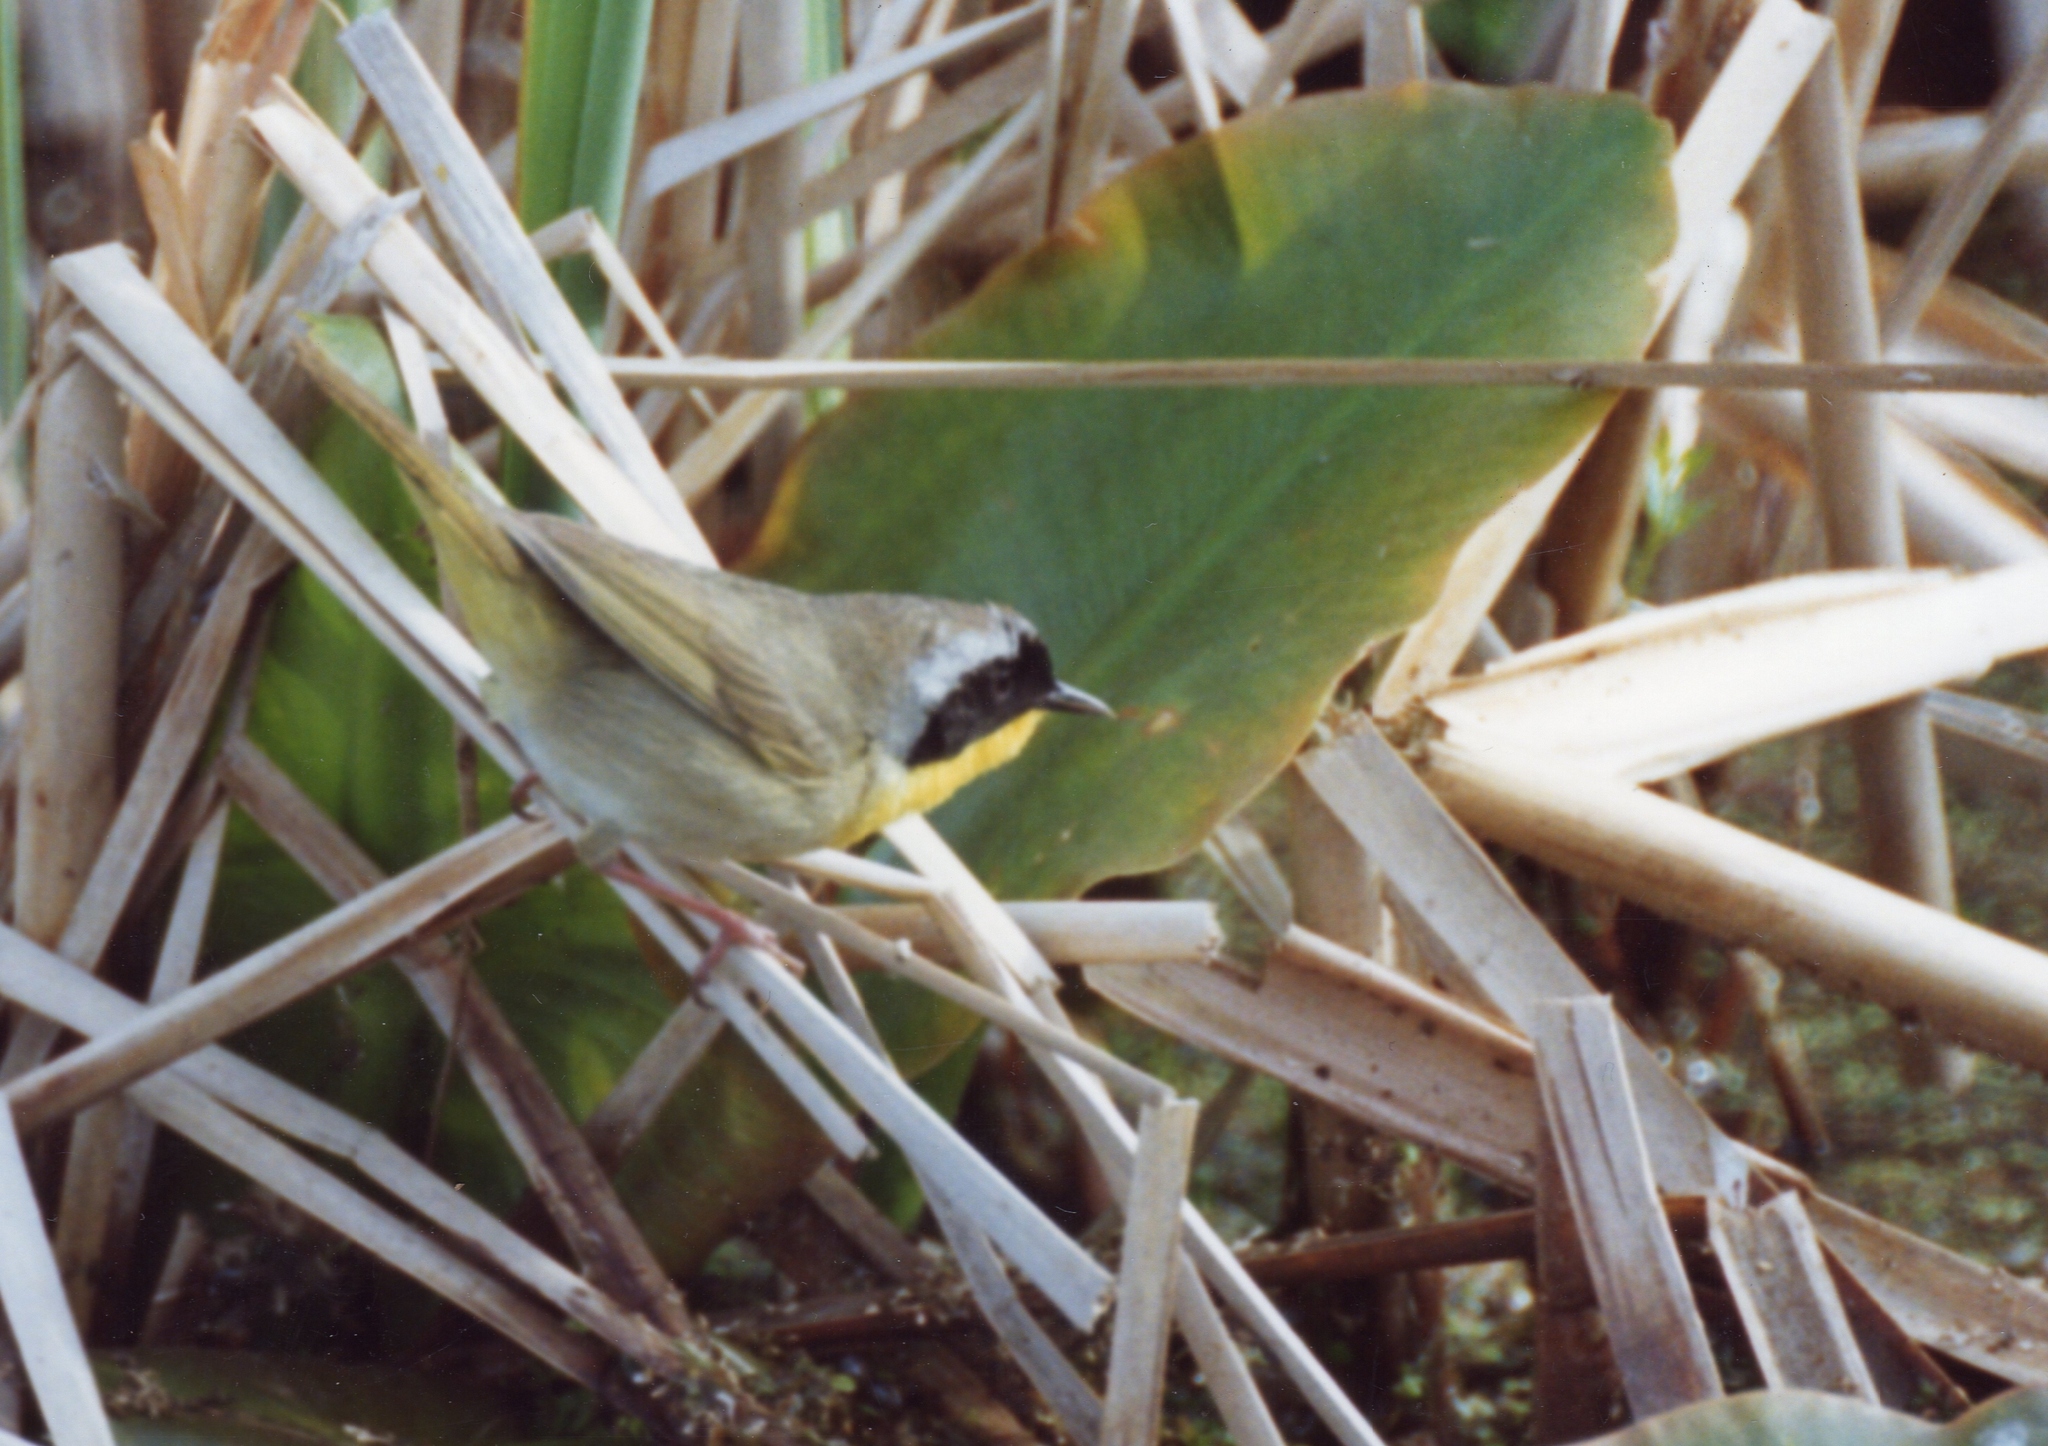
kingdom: Animalia
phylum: Chordata
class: Aves
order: Passeriformes
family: Parulidae
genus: Geothlypis
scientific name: Geothlypis trichas
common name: Common yellowthroat
